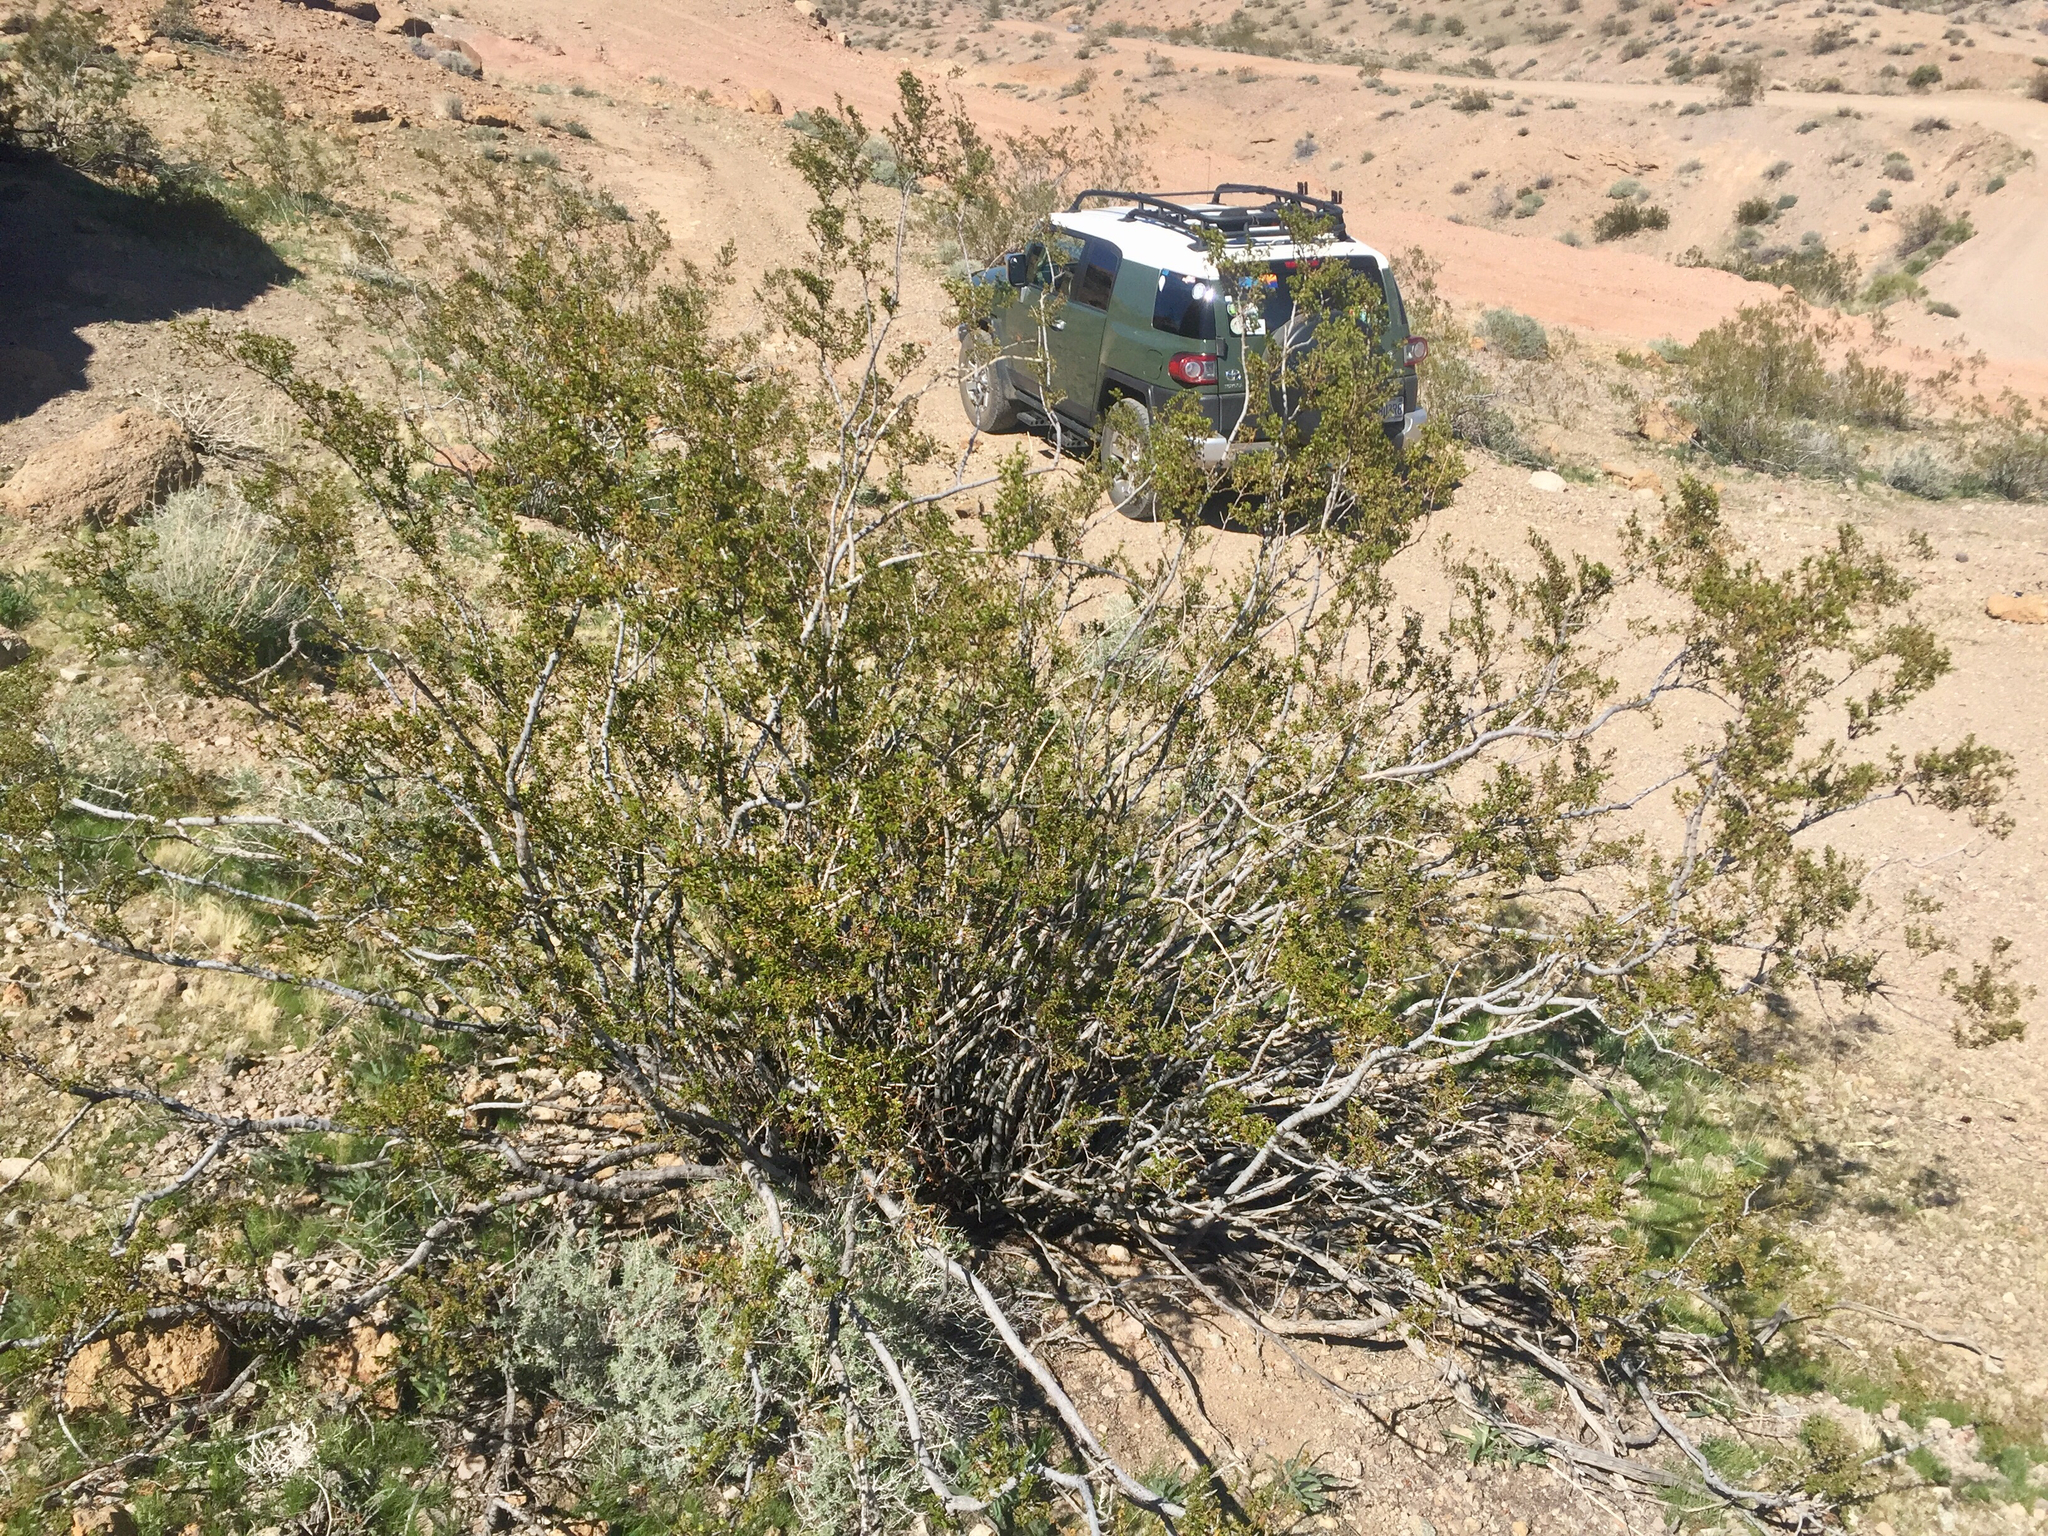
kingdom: Plantae
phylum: Tracheophyta
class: Magnoliopsida
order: Zygophyllales
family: Zygophyllaceae
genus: Larrea
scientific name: Larrea tridentata
